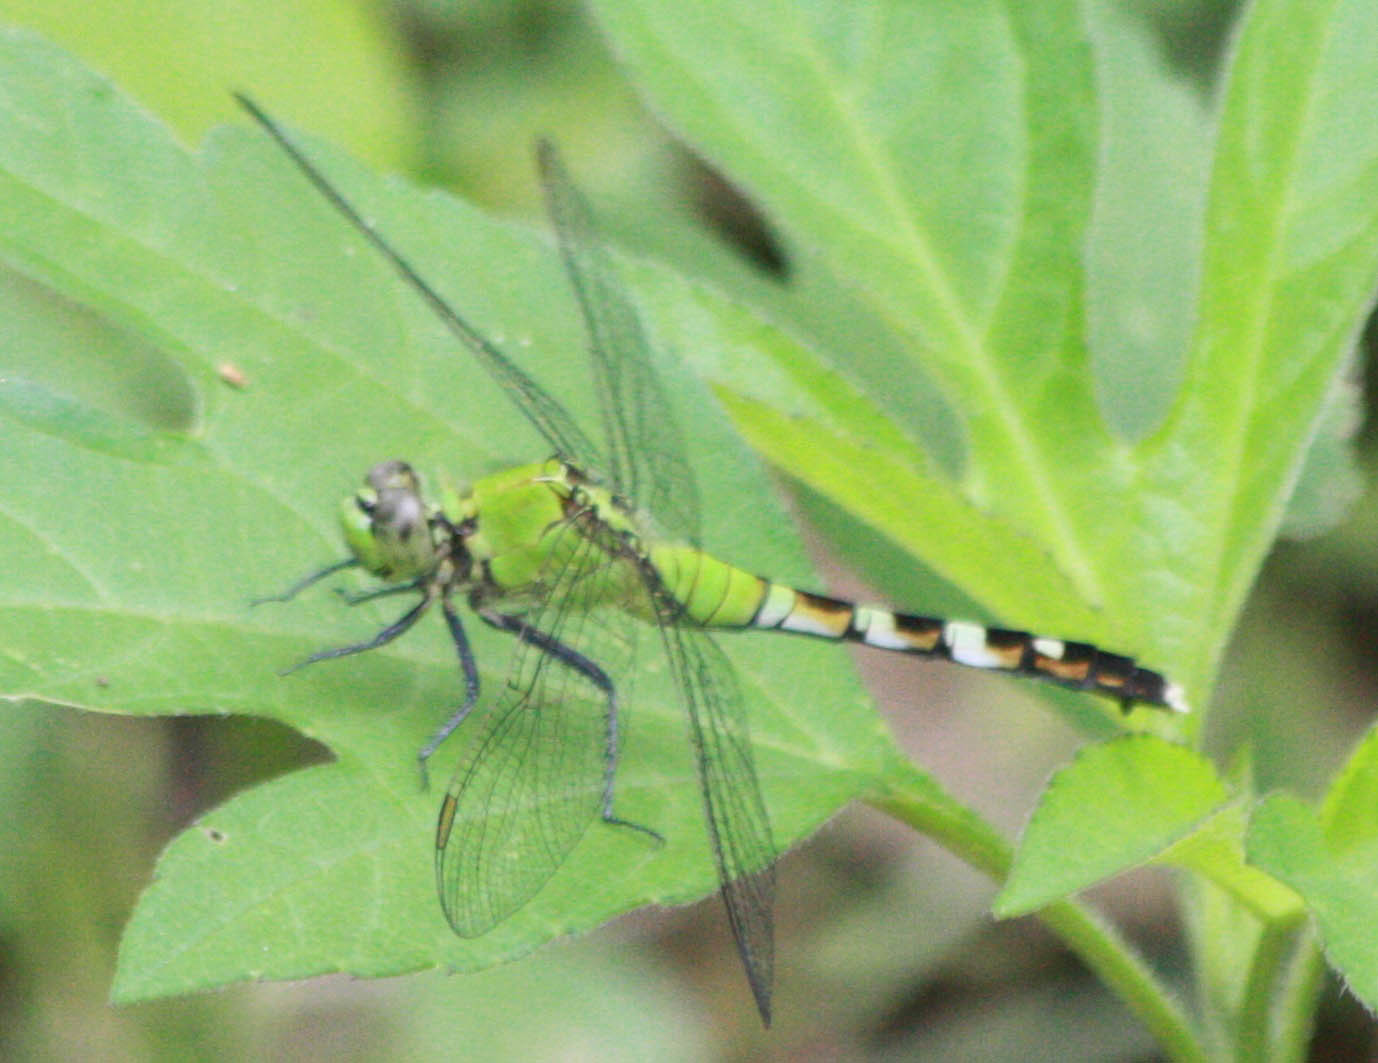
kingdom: Animalia
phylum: Arthropoda
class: Insecta
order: Odonata
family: Libellulidae
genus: Erythemis
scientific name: Erythemis simplicicollis
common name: Eastern pondhawk
